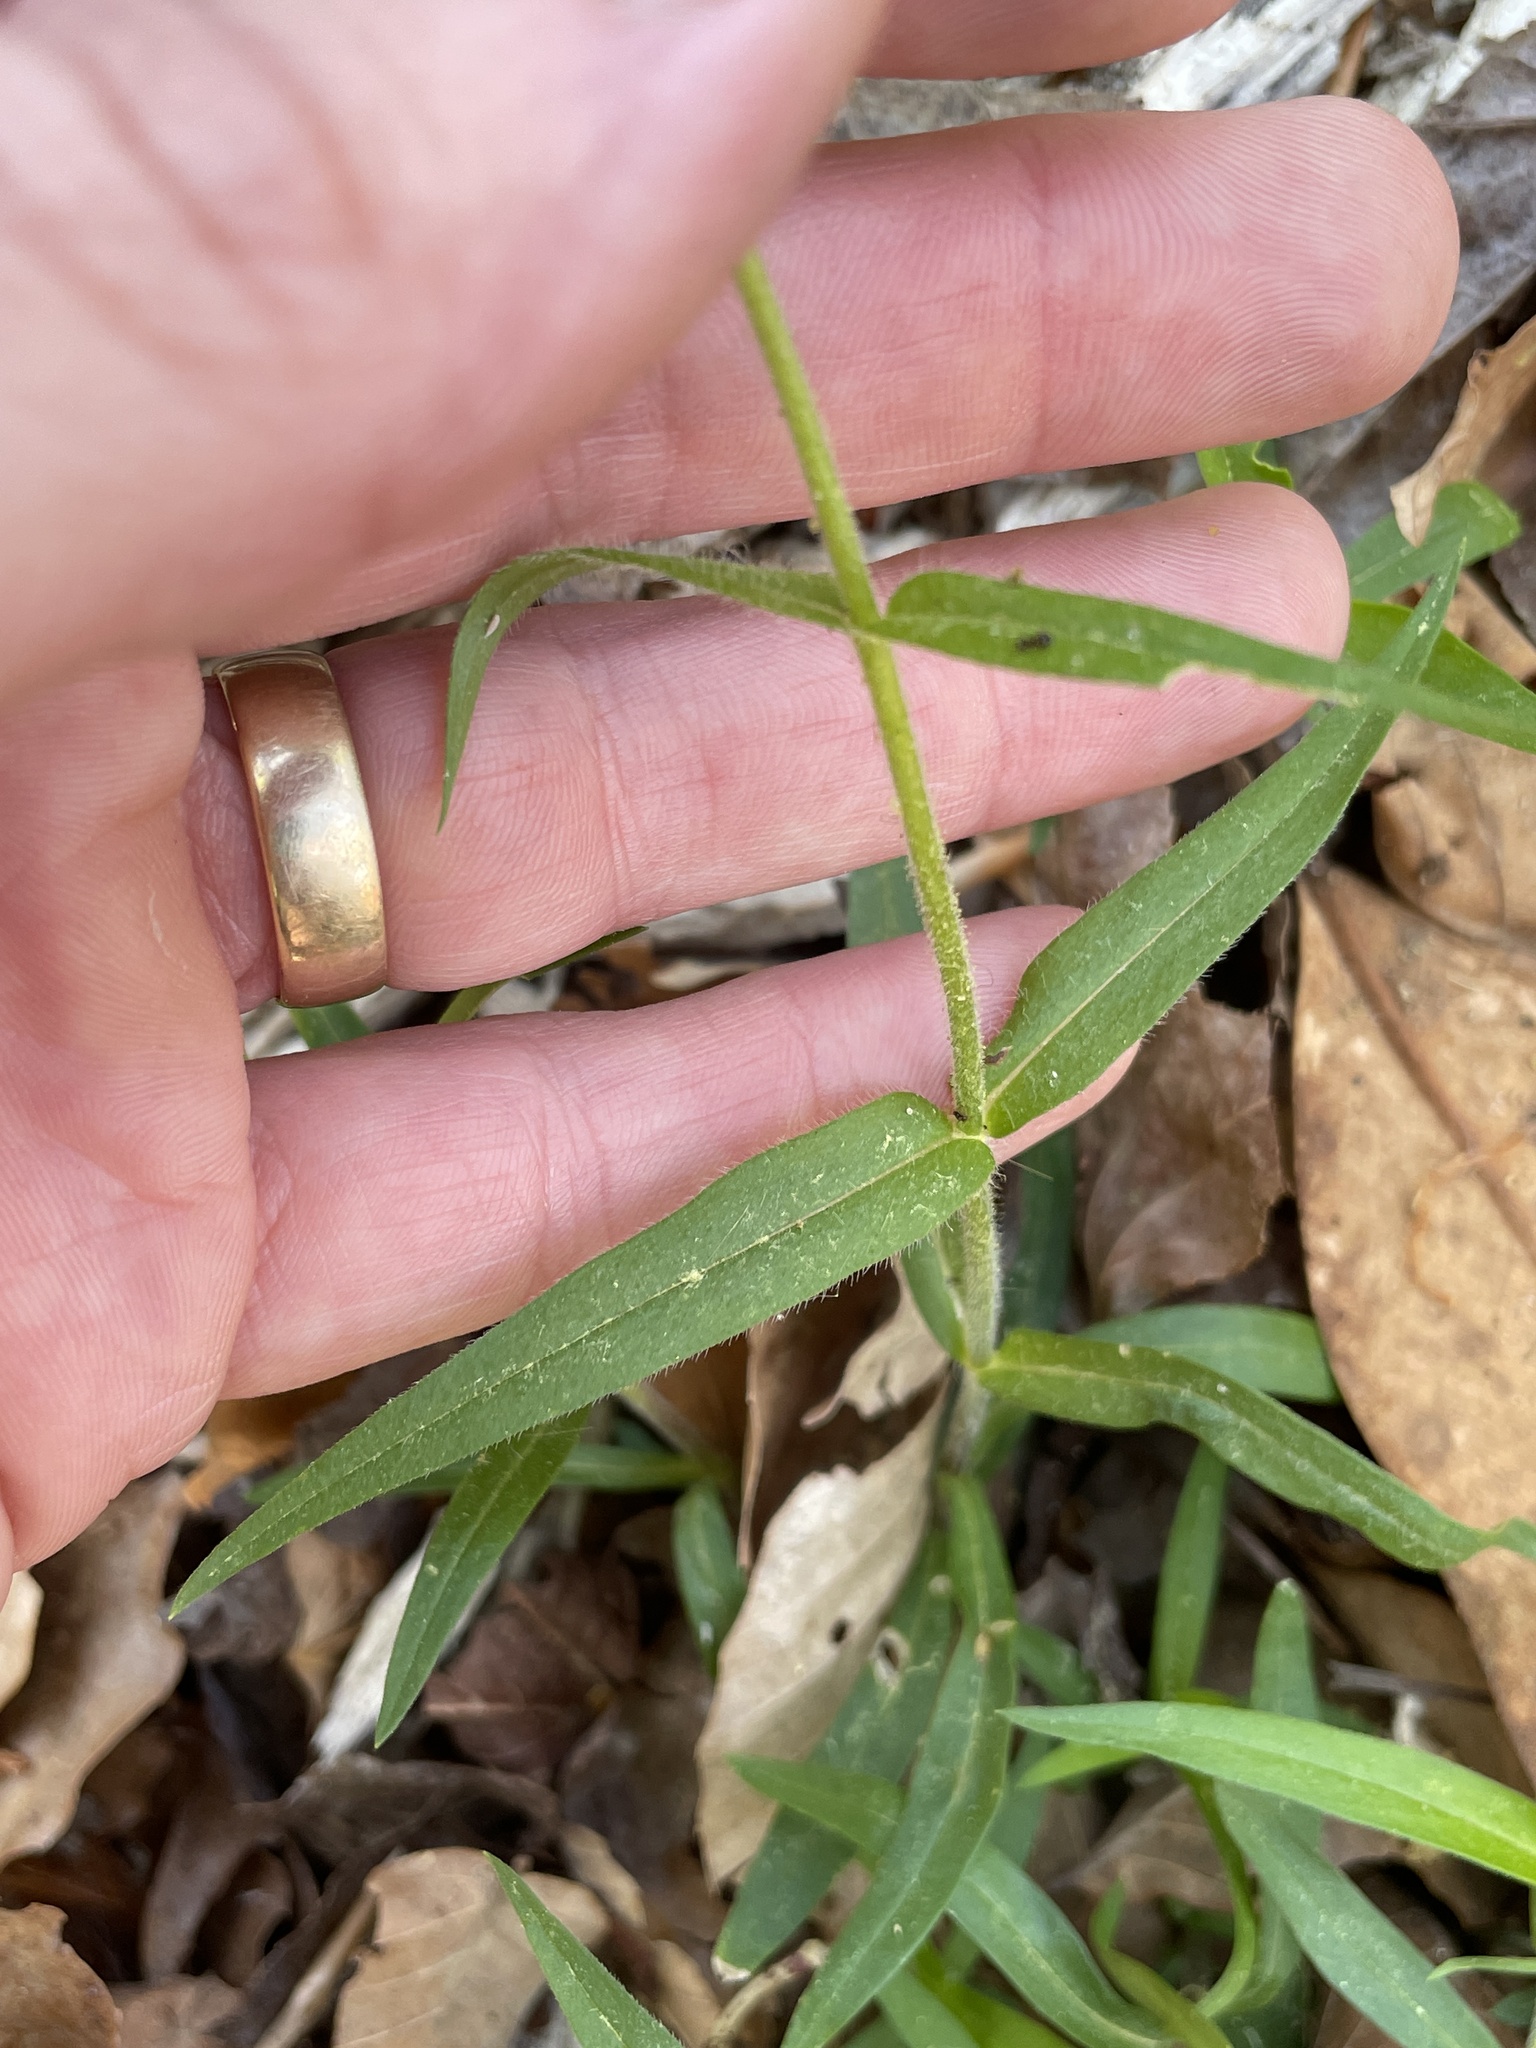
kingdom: Plantae
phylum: Tracheophyta
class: Magnoliopsida
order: Ericales
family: Polemoniaceae
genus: Phlox
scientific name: Phlox divaricata
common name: Blue phlox
